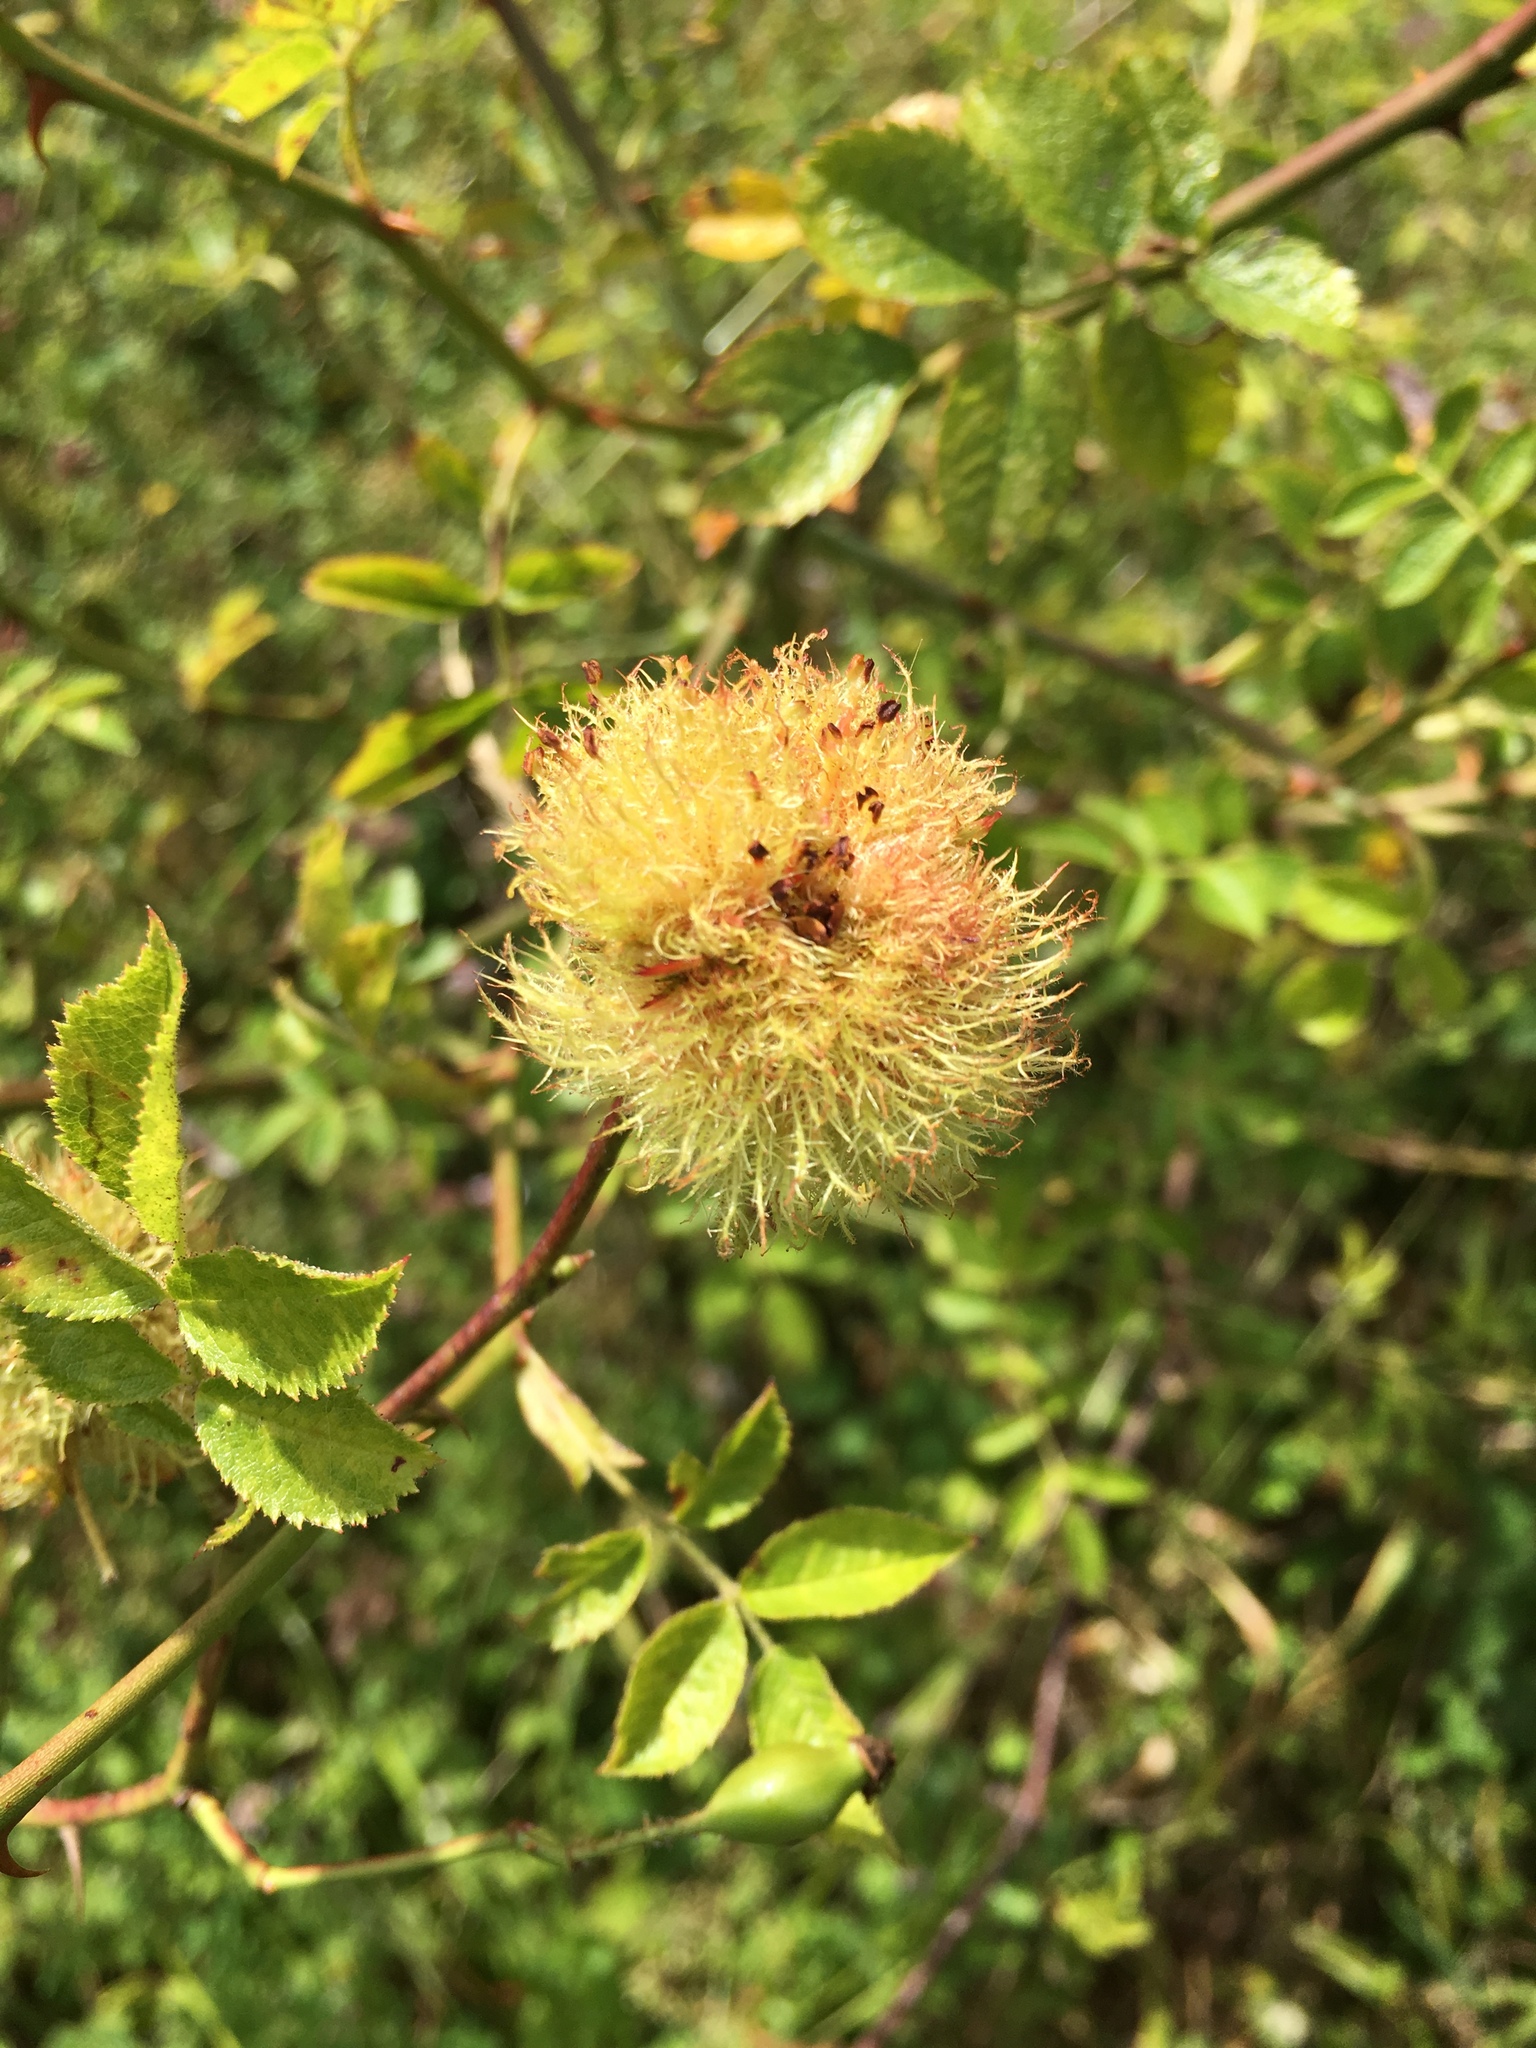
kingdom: Animalia
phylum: Arthropoda
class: Insecta
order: Hymenoptera
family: Cynipidae
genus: Diplolepis
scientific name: Diplolepis rosae
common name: Bedeguar gall
